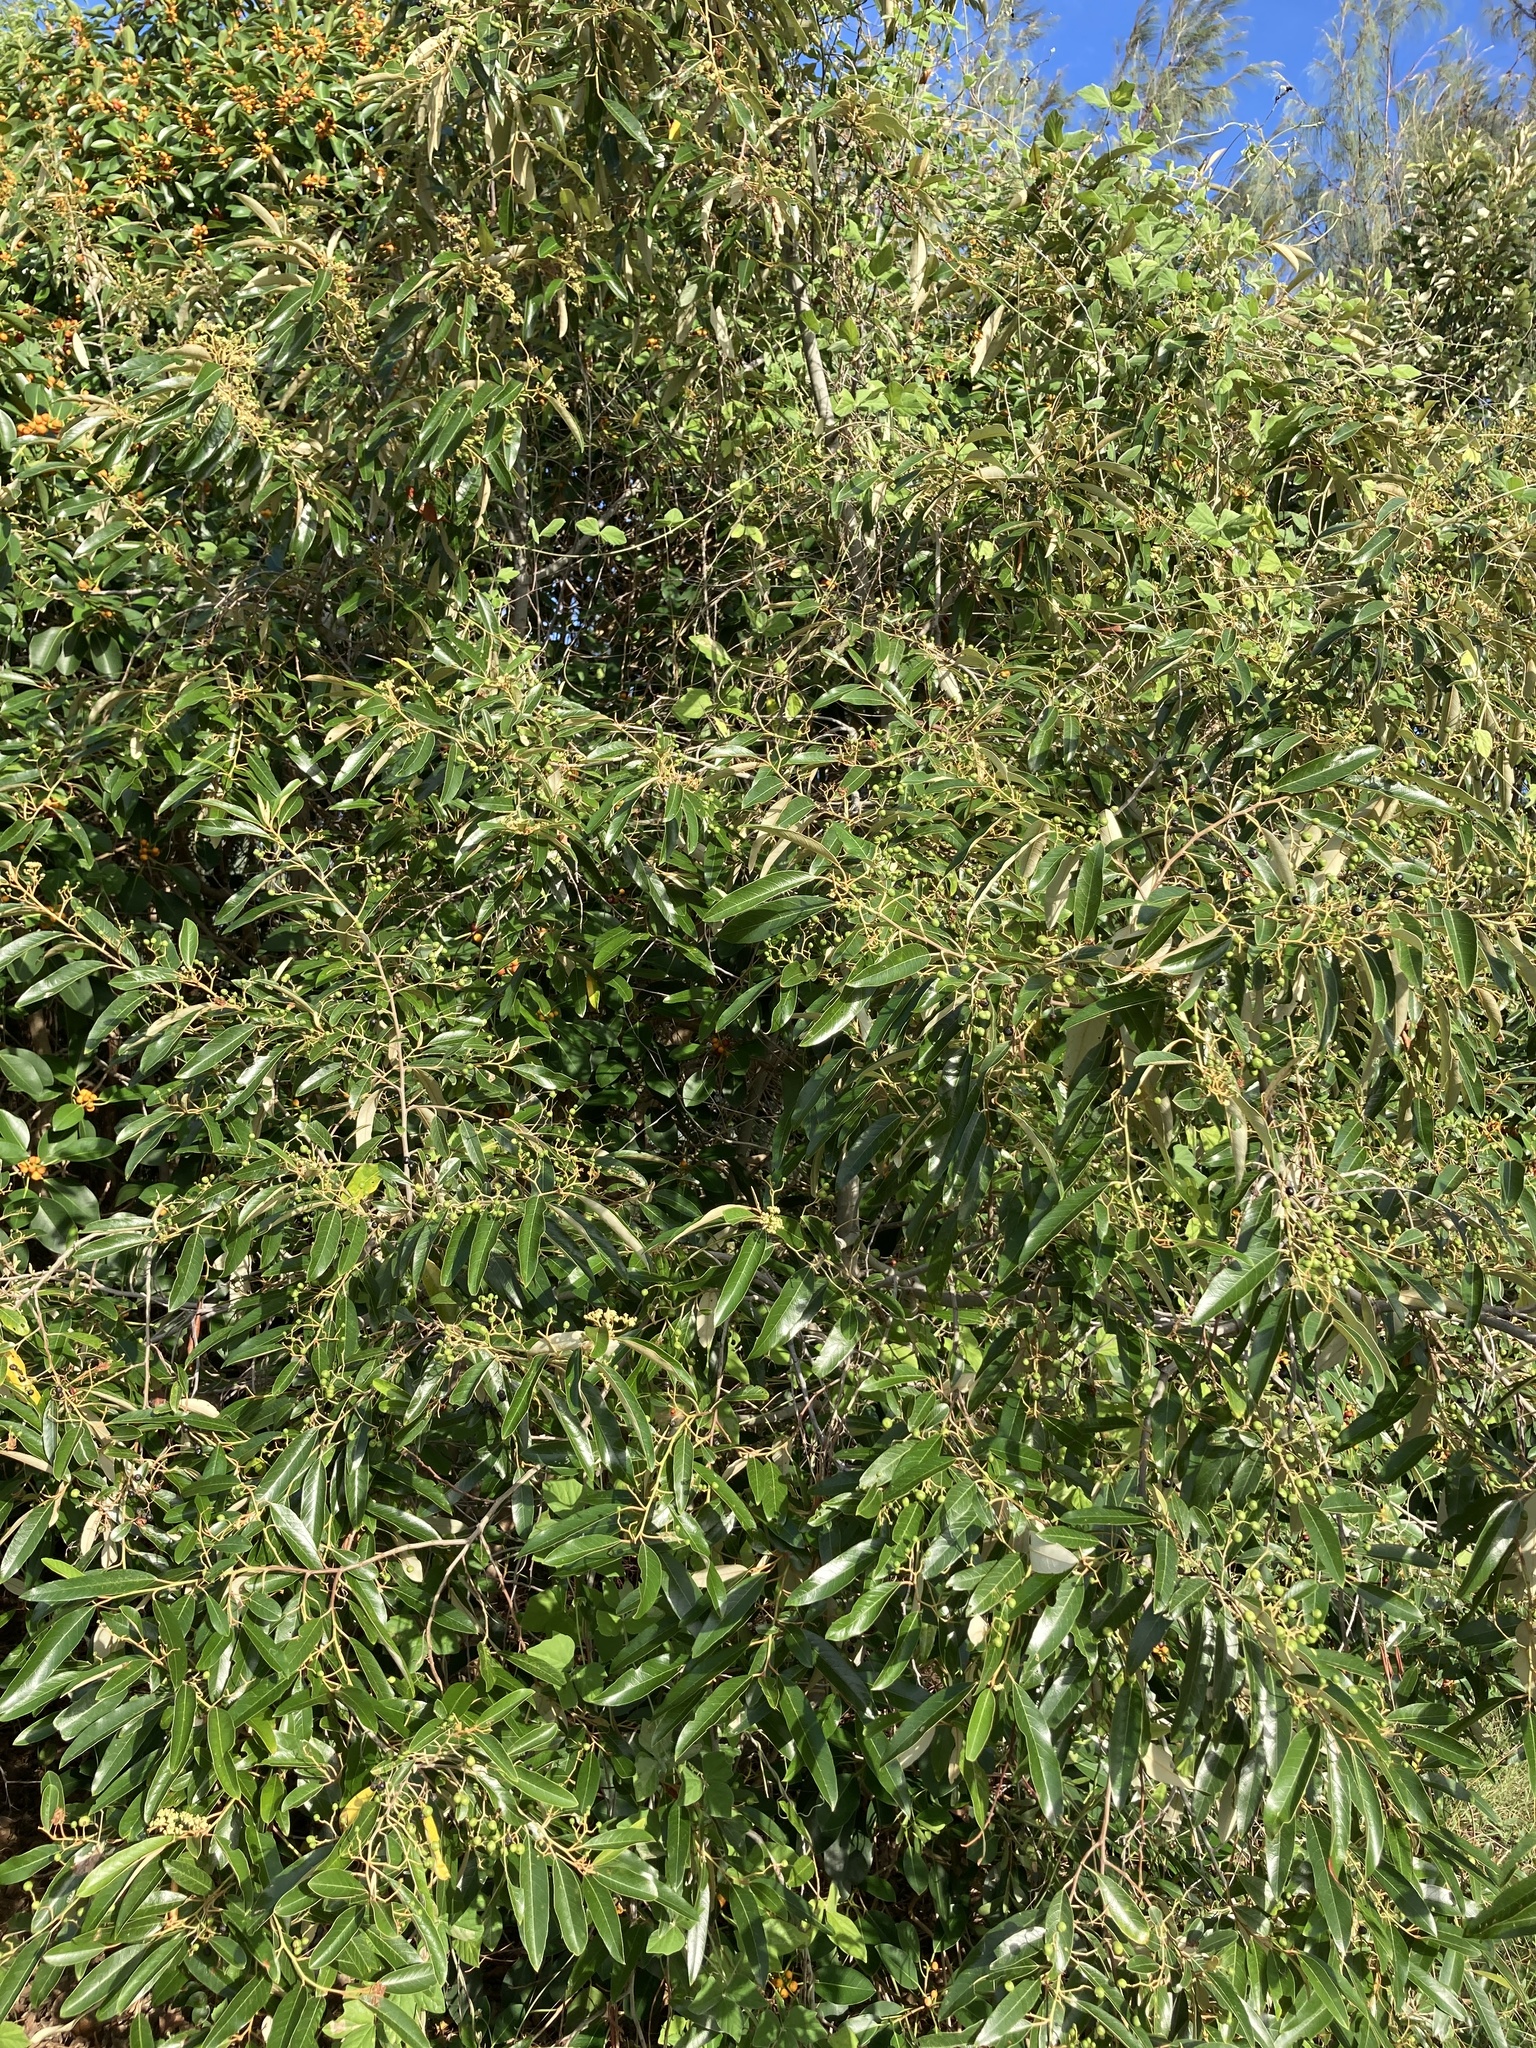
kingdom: Plantae
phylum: Tracheophyta
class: Magnoliopsida
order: Rosales
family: Rhamnaceae
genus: Alphitonia
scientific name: Alphitonia excelsa
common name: Red ash
